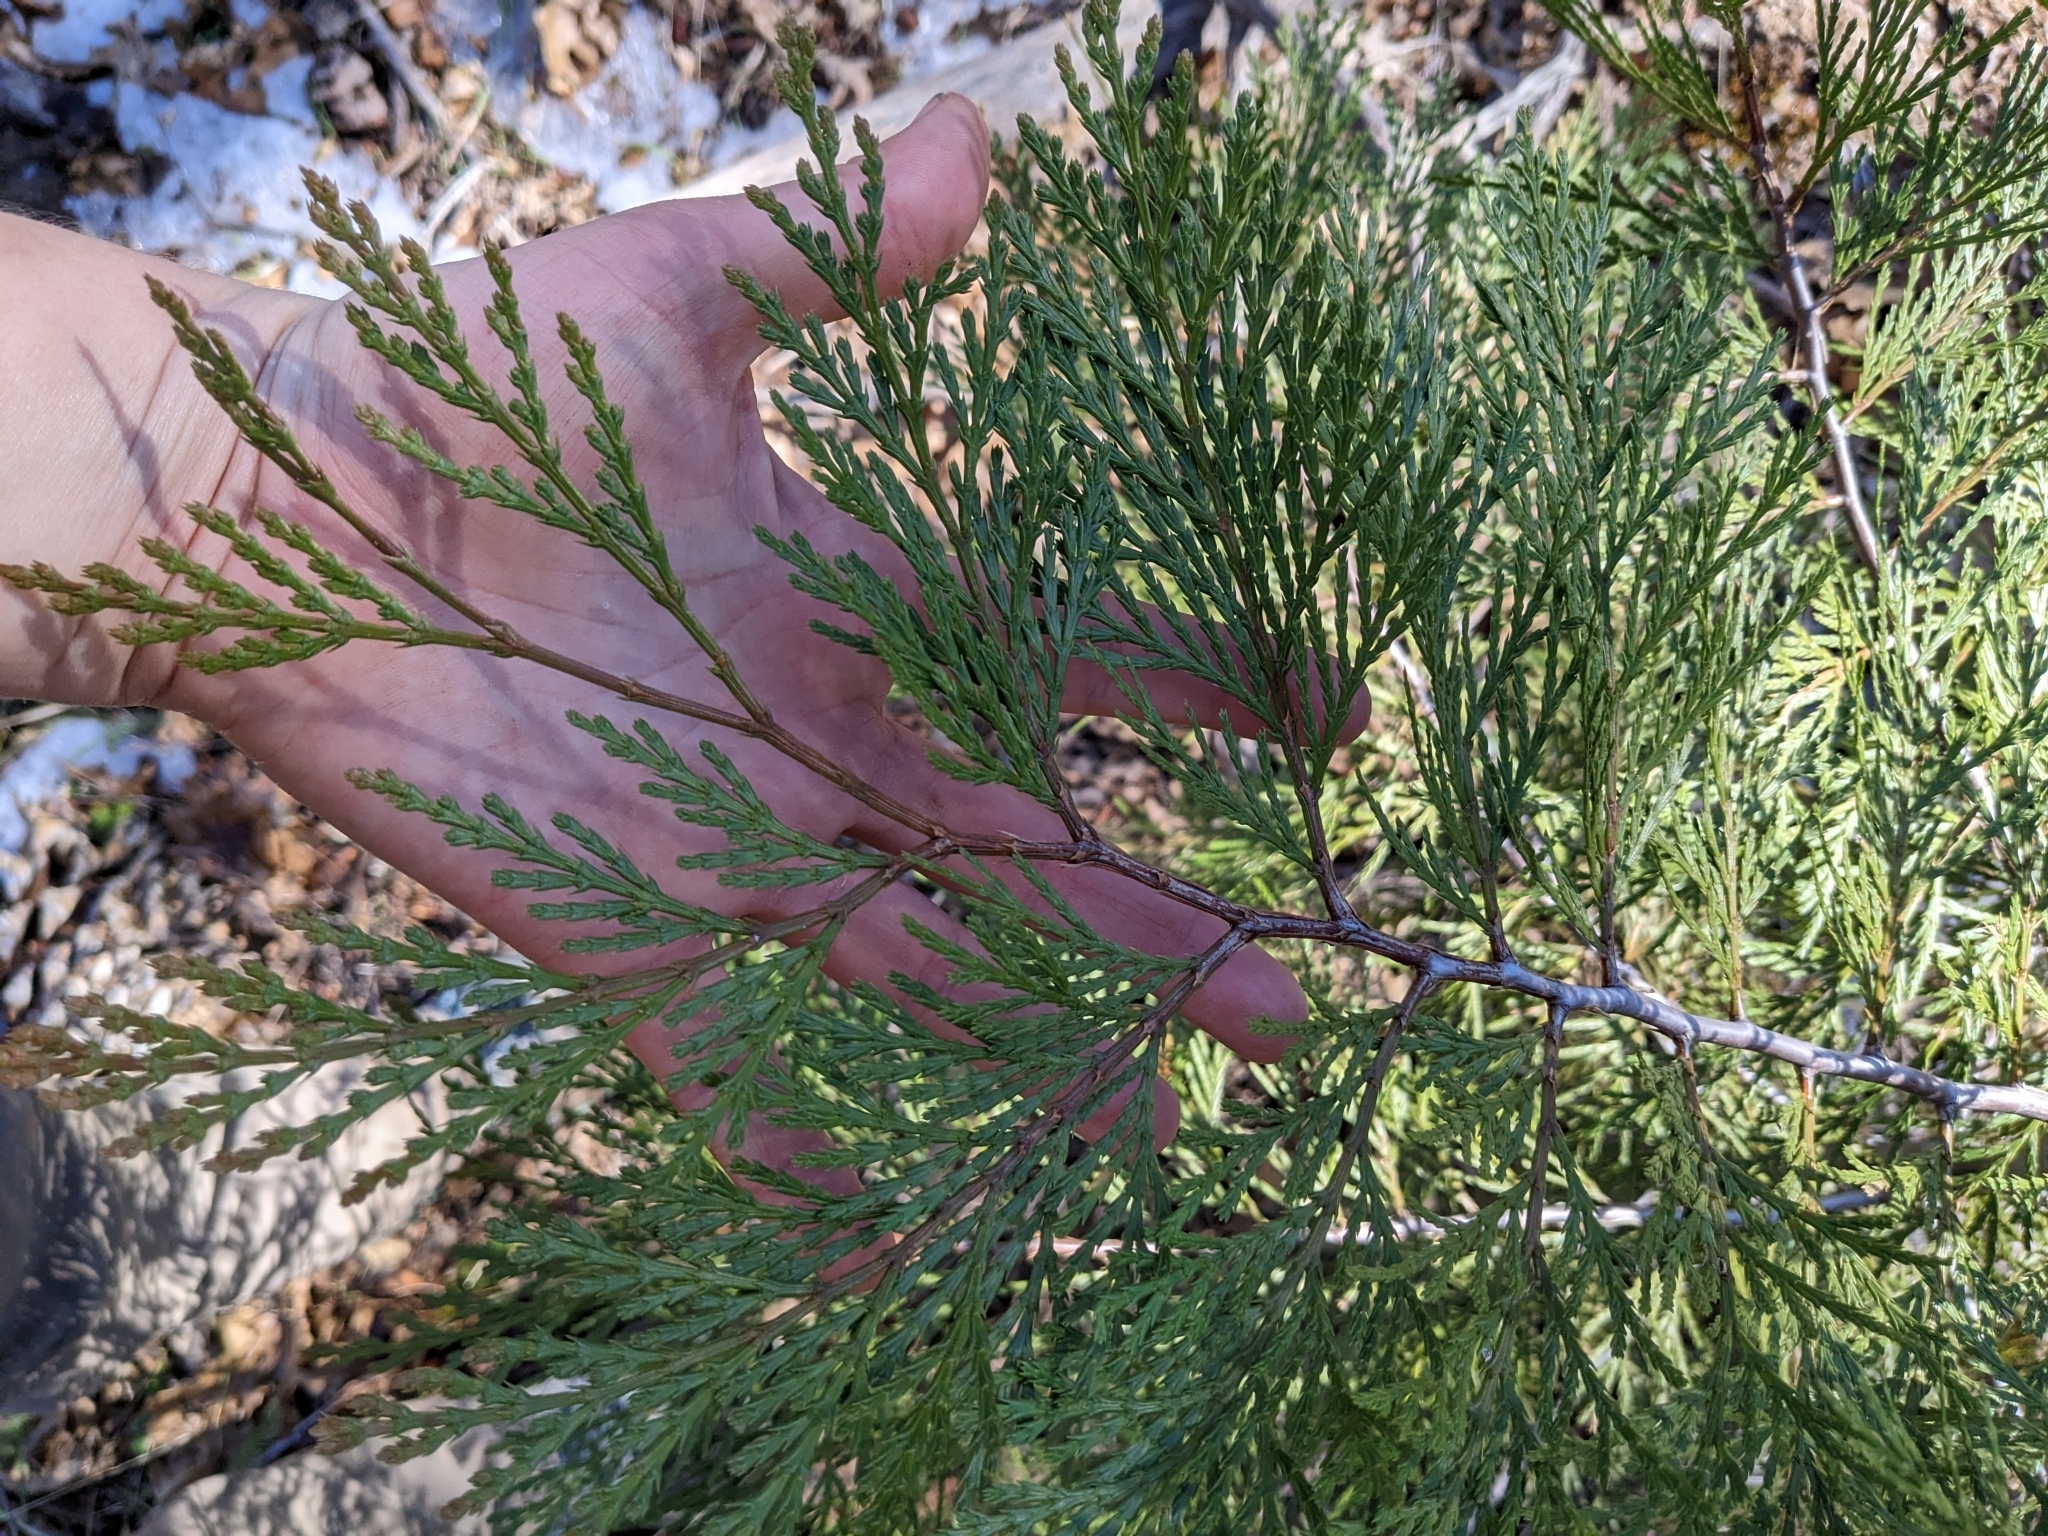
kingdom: Plantae
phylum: Tracheophyta
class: Pinopsida
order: Pinales
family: Cupressaceae
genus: Calocedrus
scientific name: Calocedrus decurrens
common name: Californian incense-cedar
